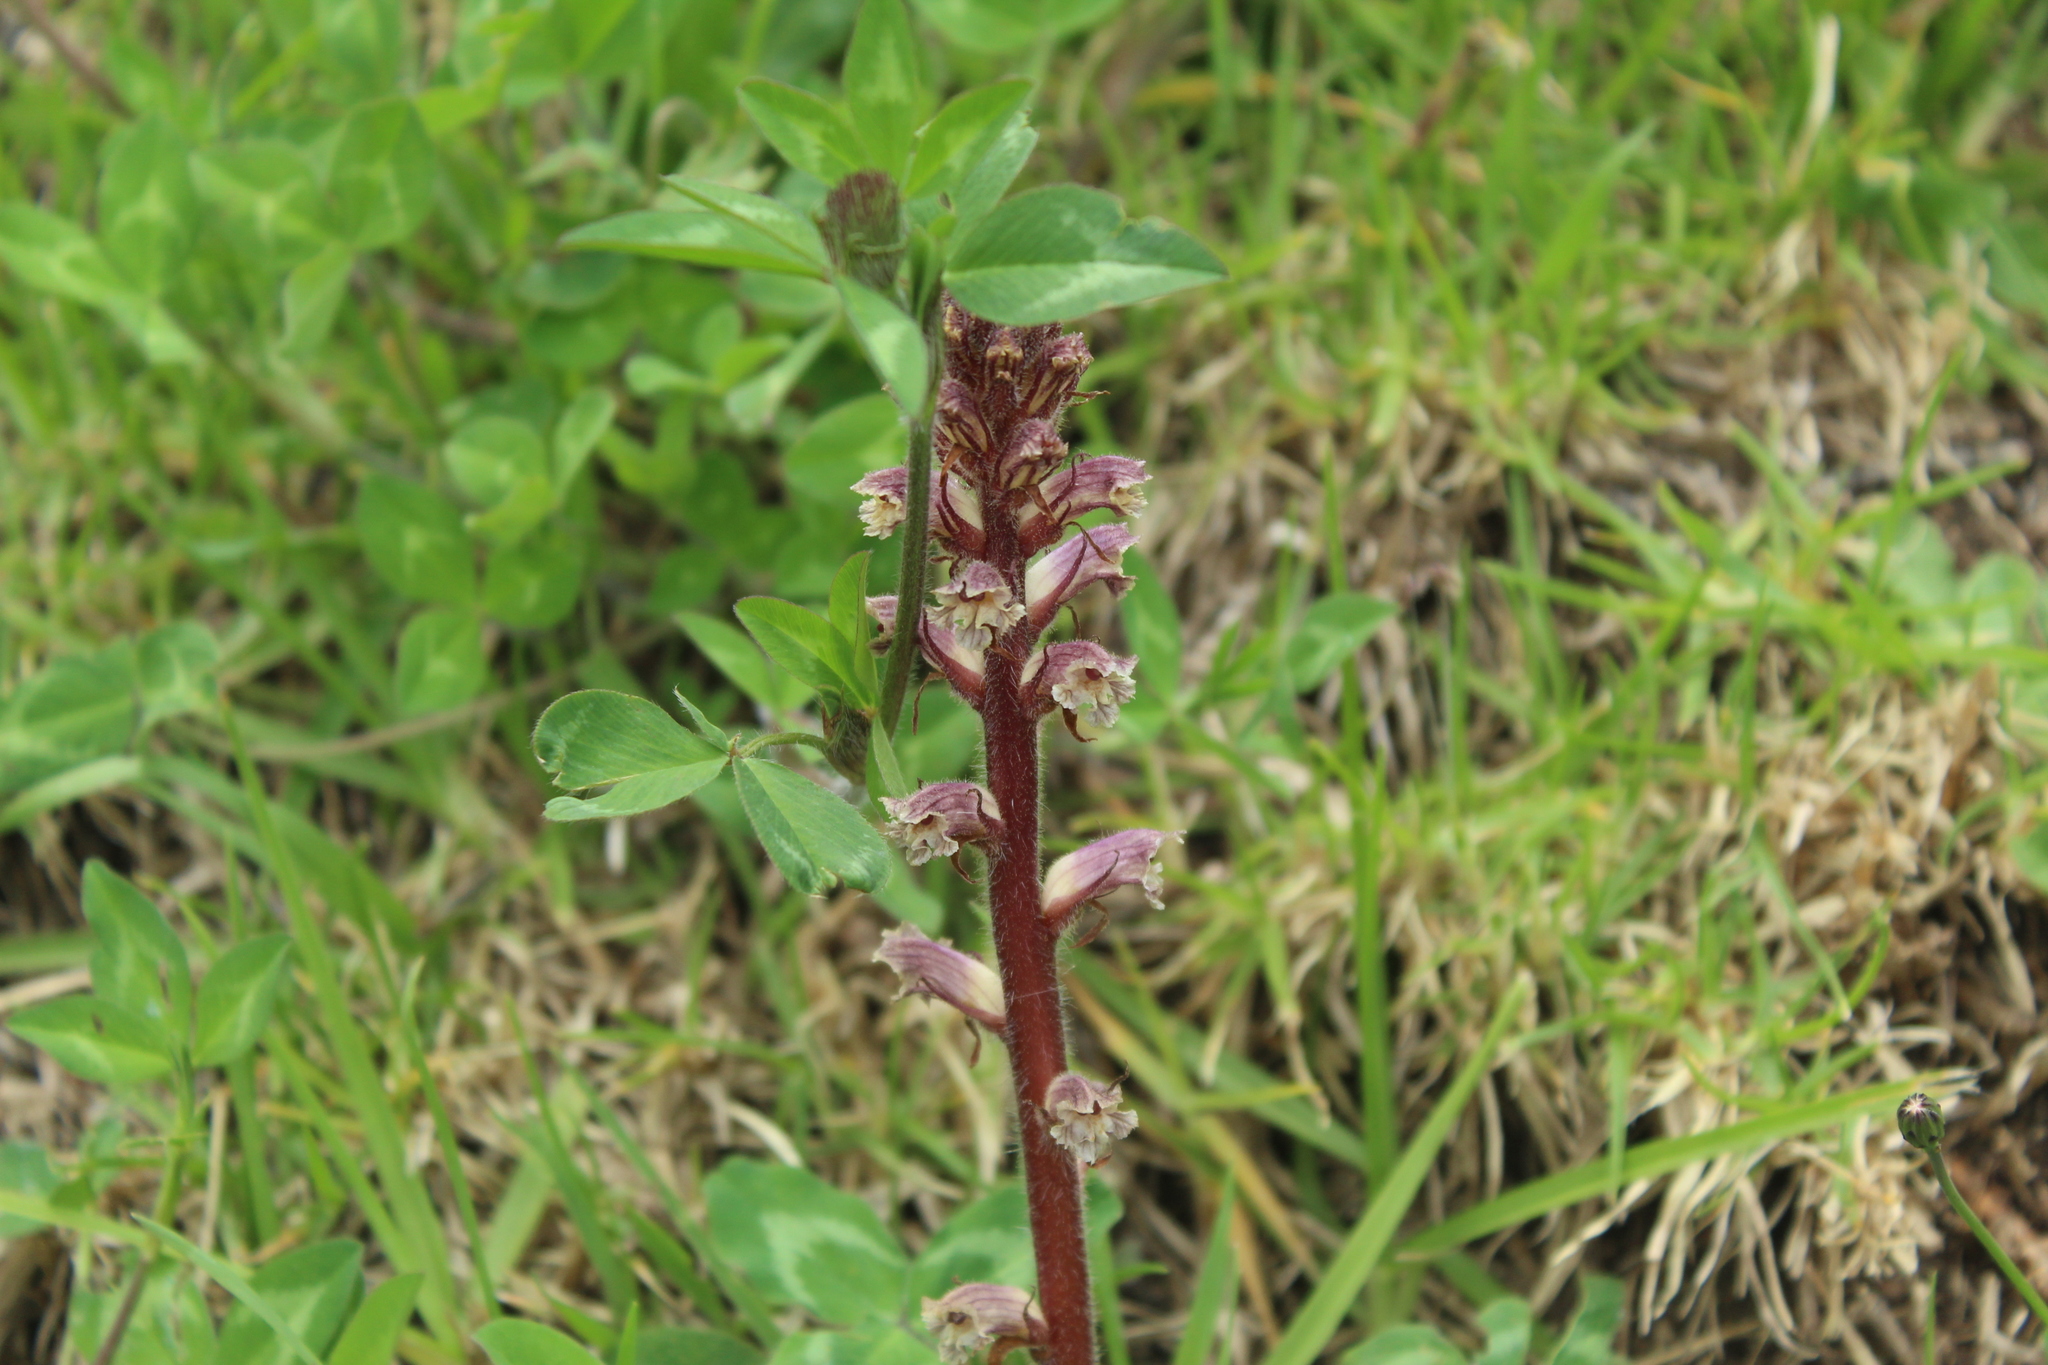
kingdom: Plantae
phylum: Tracheophyta
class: Magnoliopsida
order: Lamiales
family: Orobanchaceae
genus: Orobanche
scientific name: Orobanche minor
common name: Common broomrape
